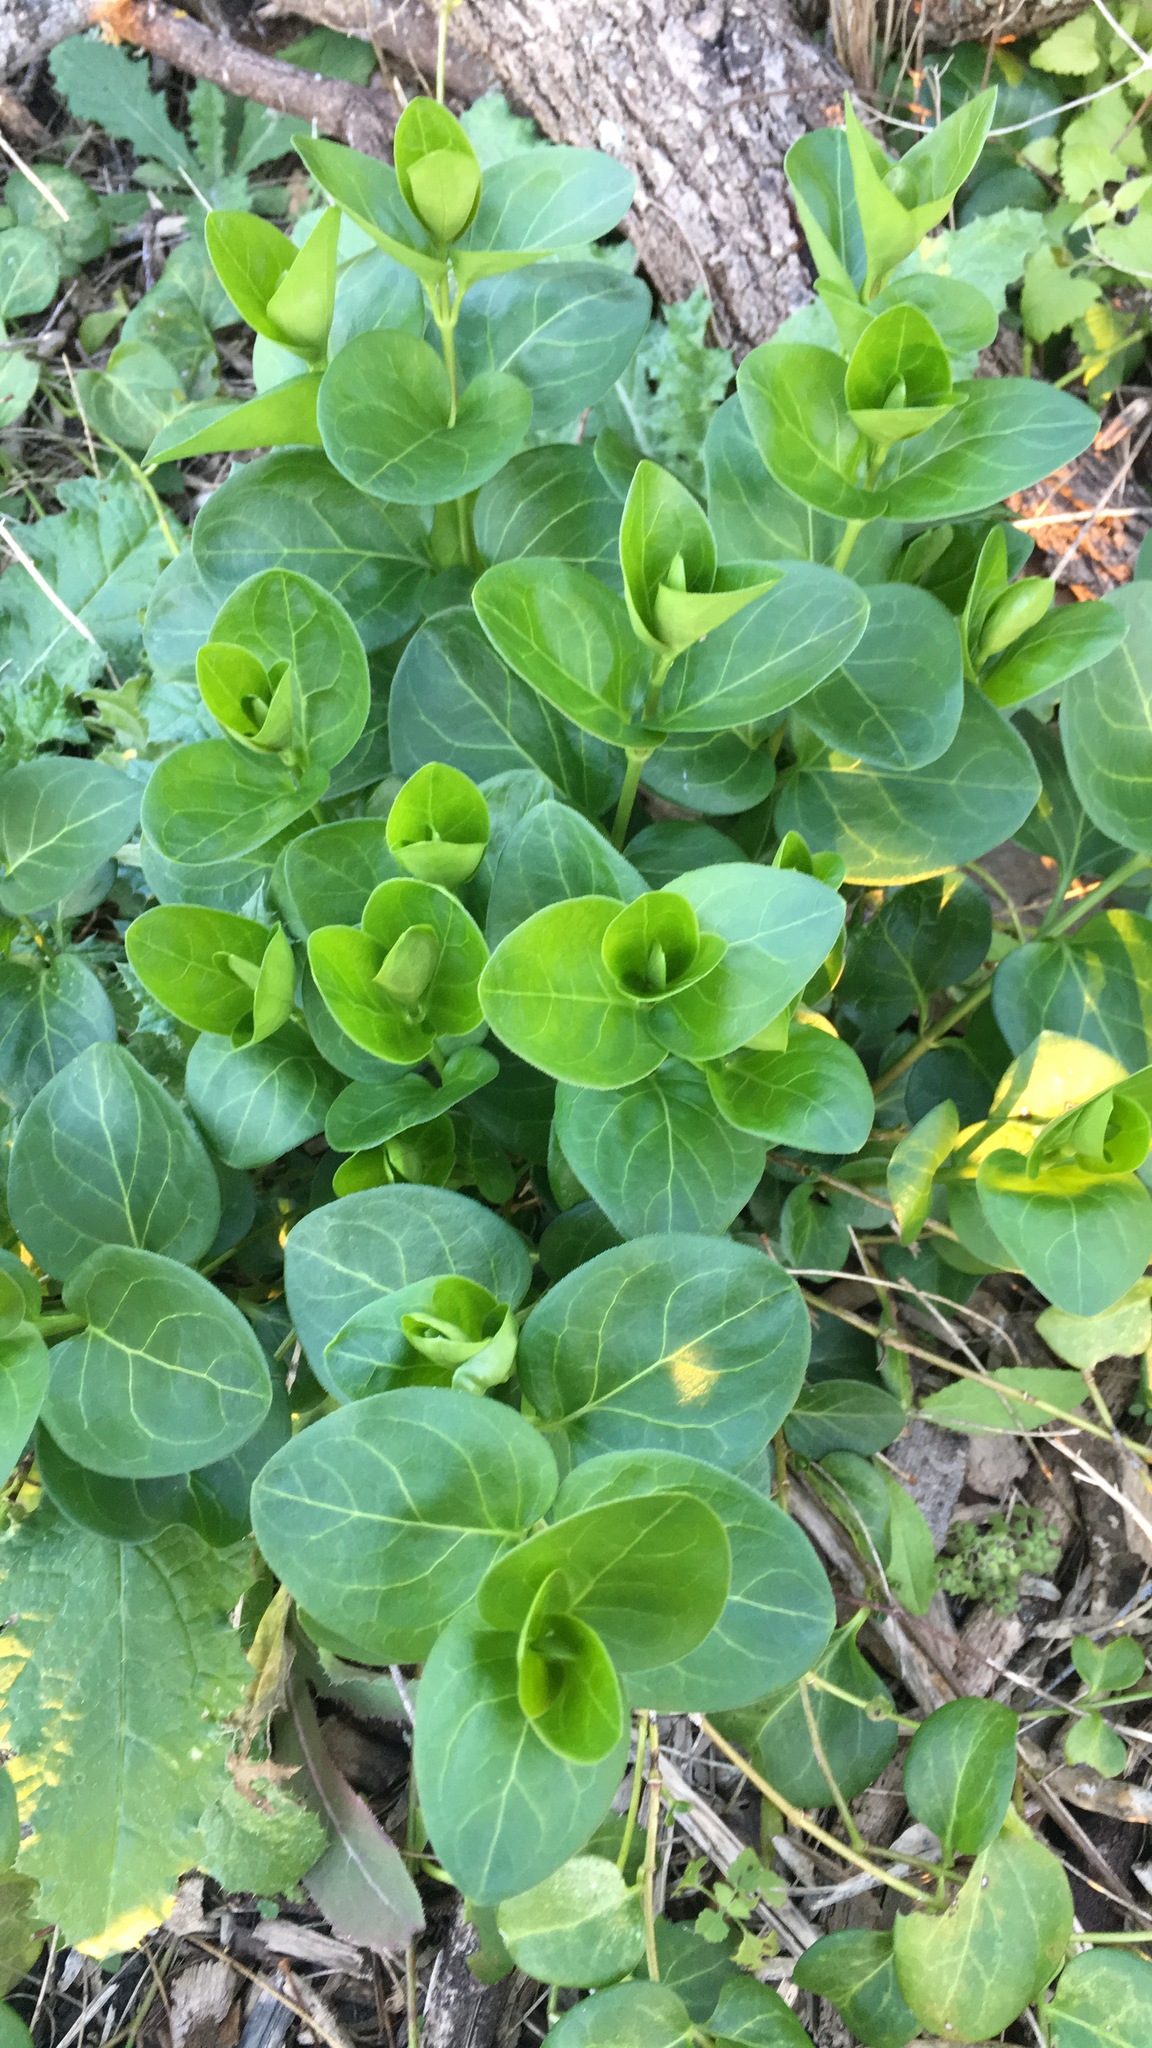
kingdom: Plantae
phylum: Tracheophyta
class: Magnoliopsida
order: Gentianales
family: Apocynaceae
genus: Vinca
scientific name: Vinca major
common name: Greater periwinkle
